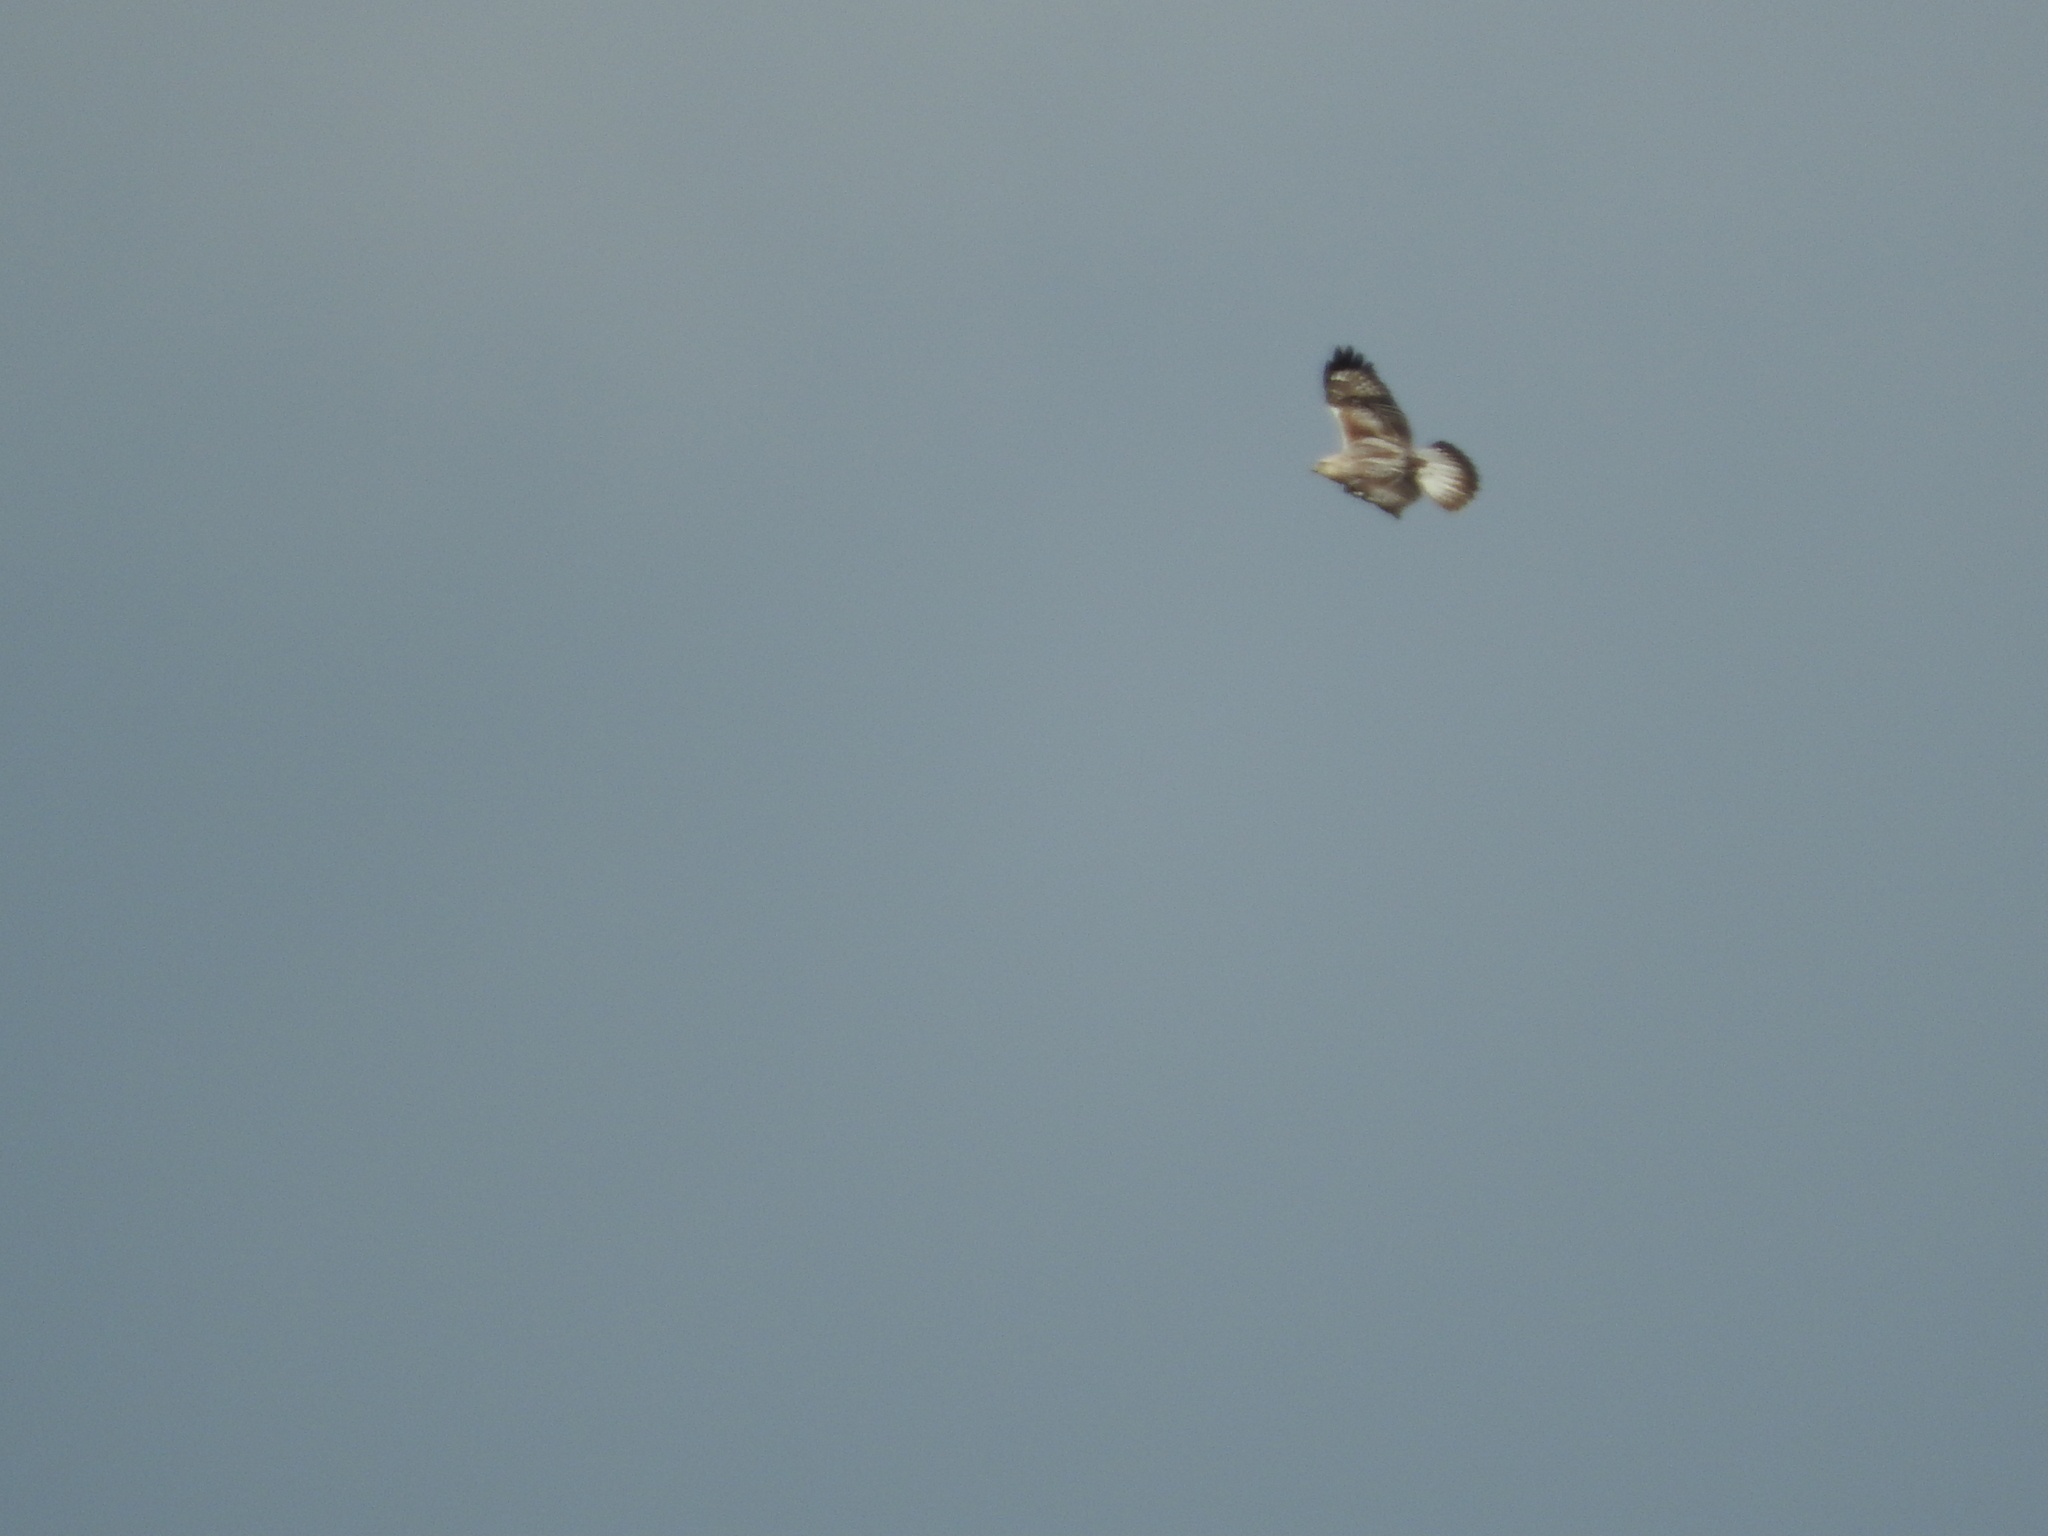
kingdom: Animalia
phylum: Chordata
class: Aves
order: Accipitriformes
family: Accipitridae
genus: Buteo
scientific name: Buteo lagopus
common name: Rough-legged buzzard
